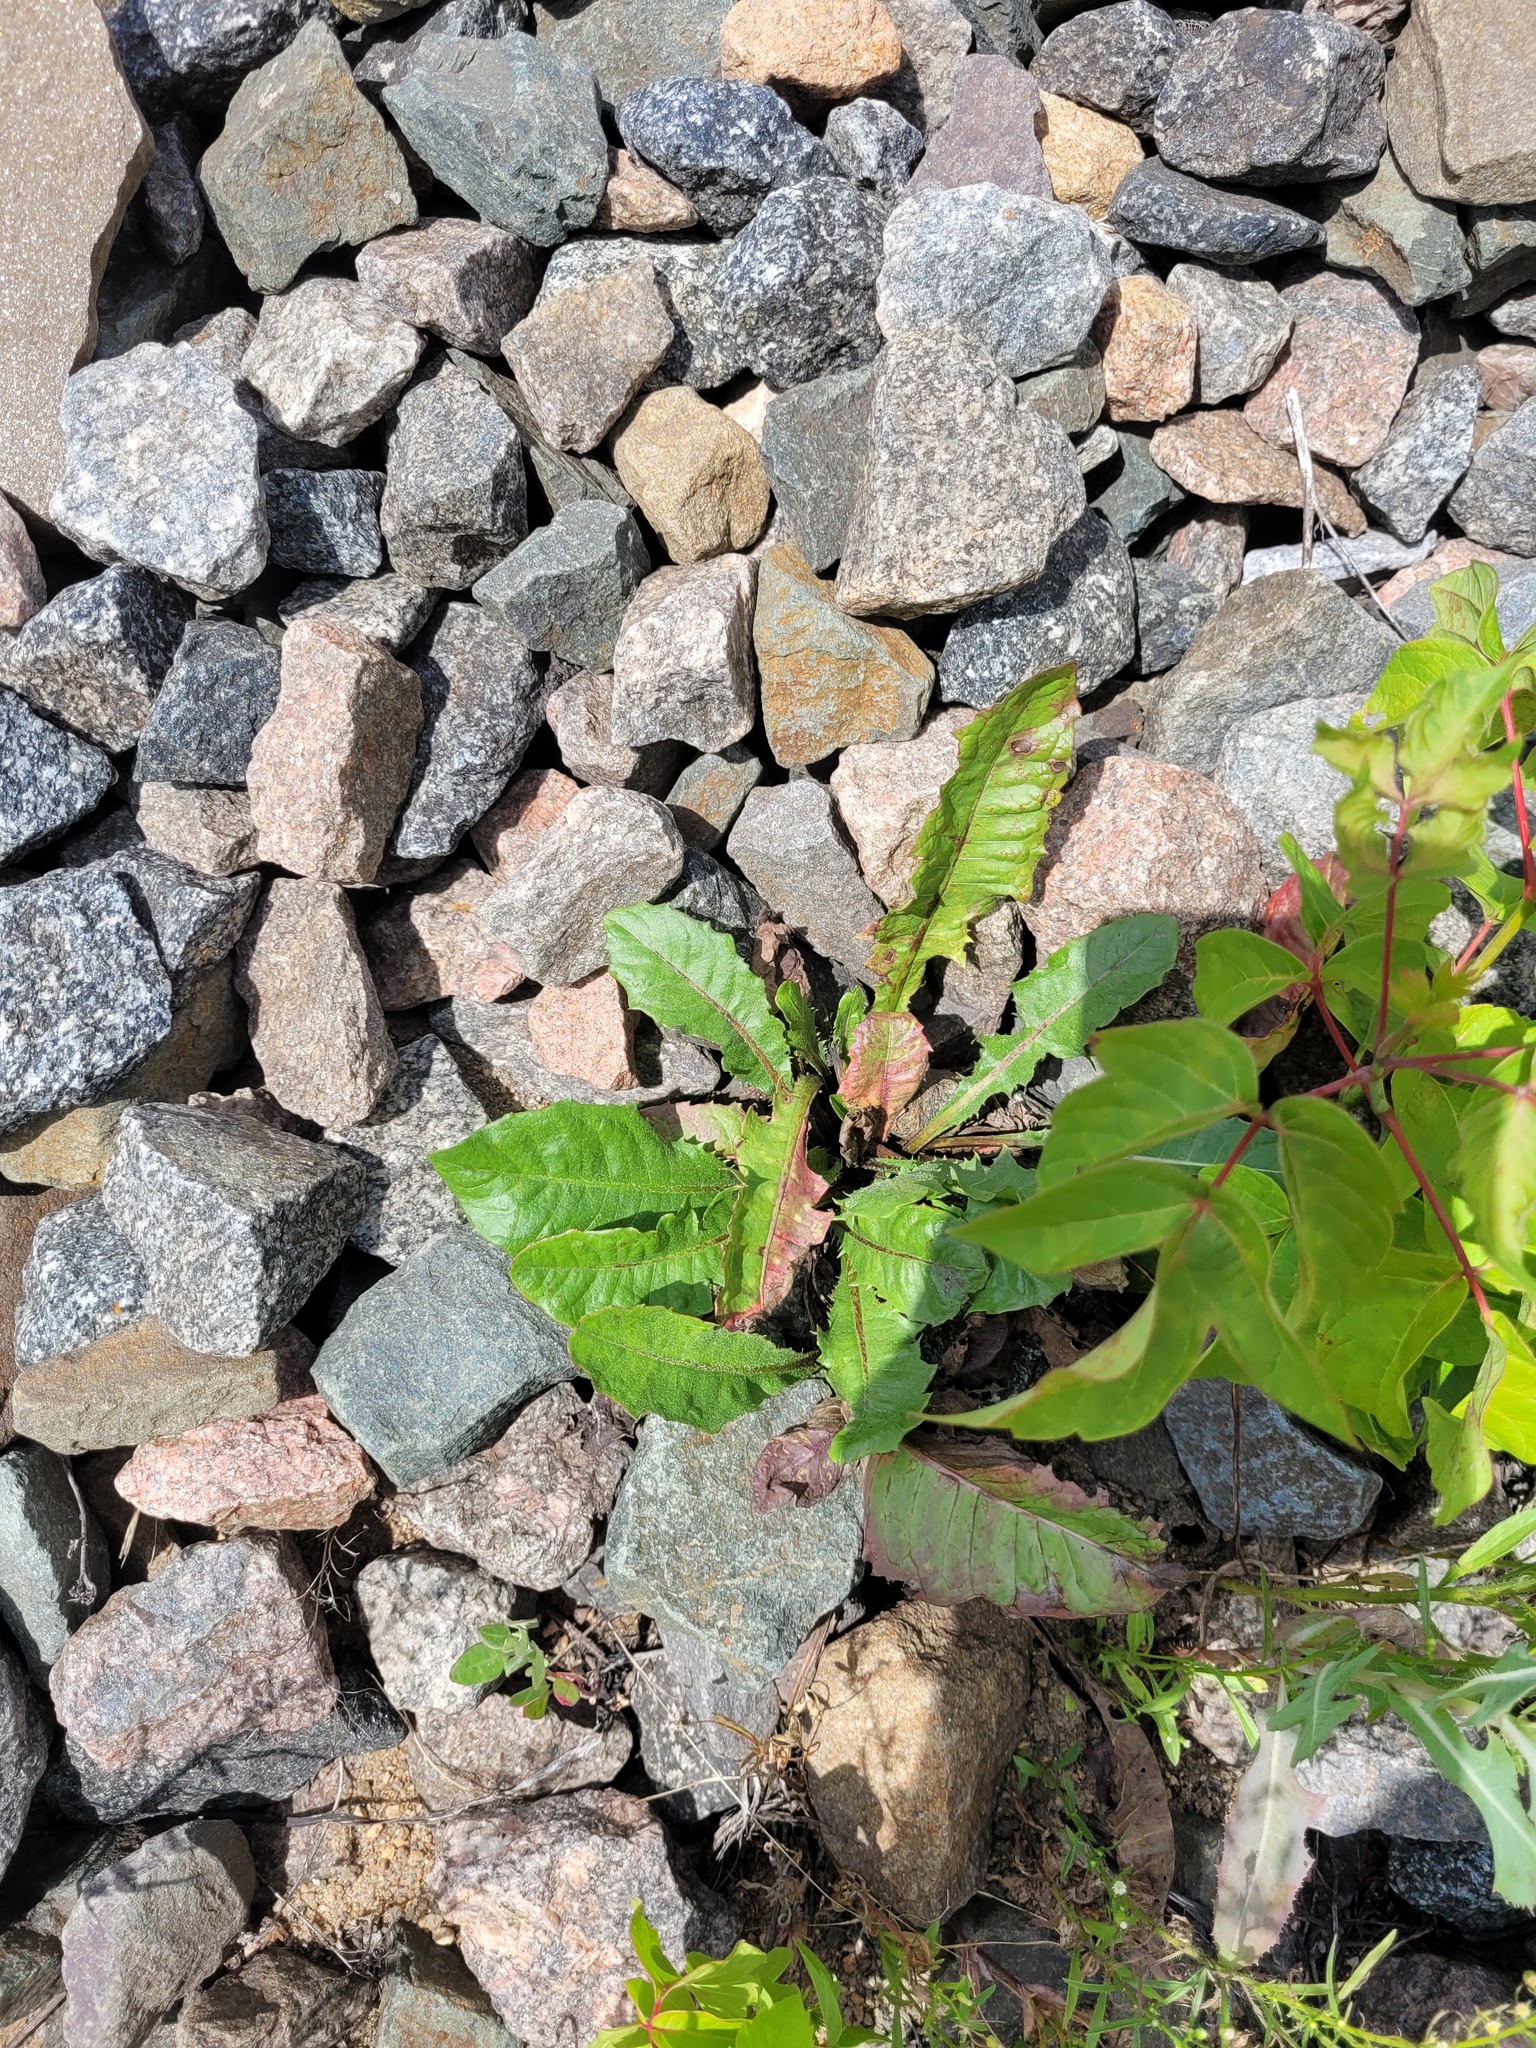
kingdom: Plantae
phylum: Tracheophyta
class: Magnoliopsida
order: Asterales
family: Asteraceae
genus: Taraxacum
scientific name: Taraxacum officinale
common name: Common dandelion
